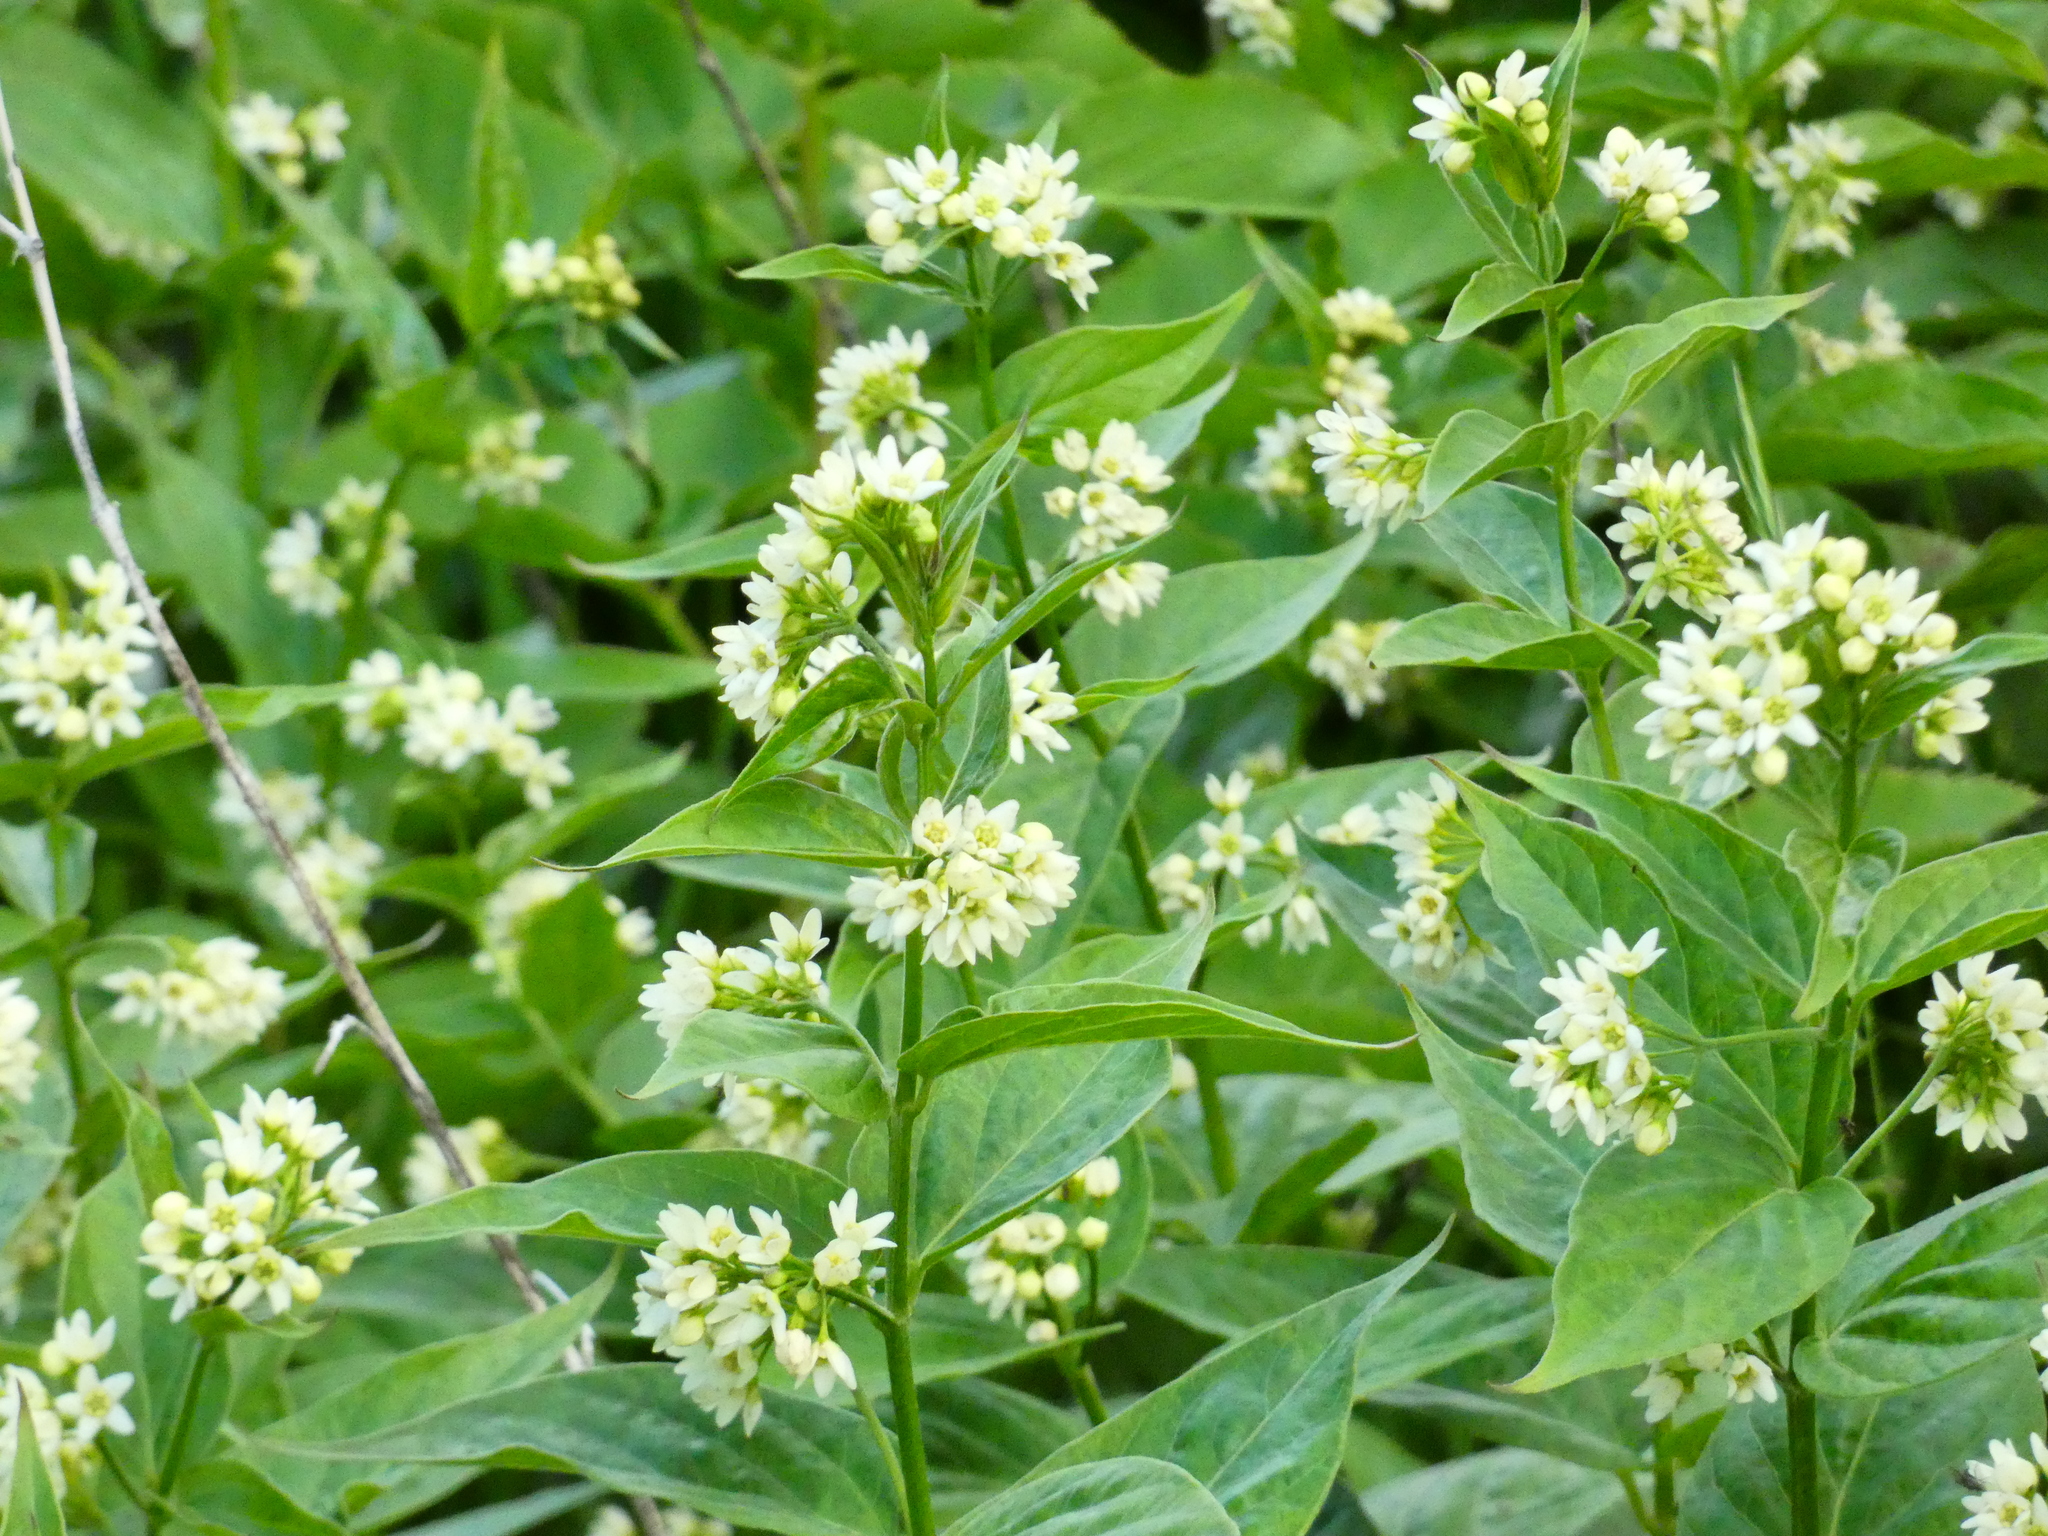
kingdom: Plantae
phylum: Tracheophyta
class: Magnoliopsida
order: Gentianales
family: Apocynaceae
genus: Vincetoxicum
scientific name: Vincetoxicum hirundinaria
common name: White swallowwort
